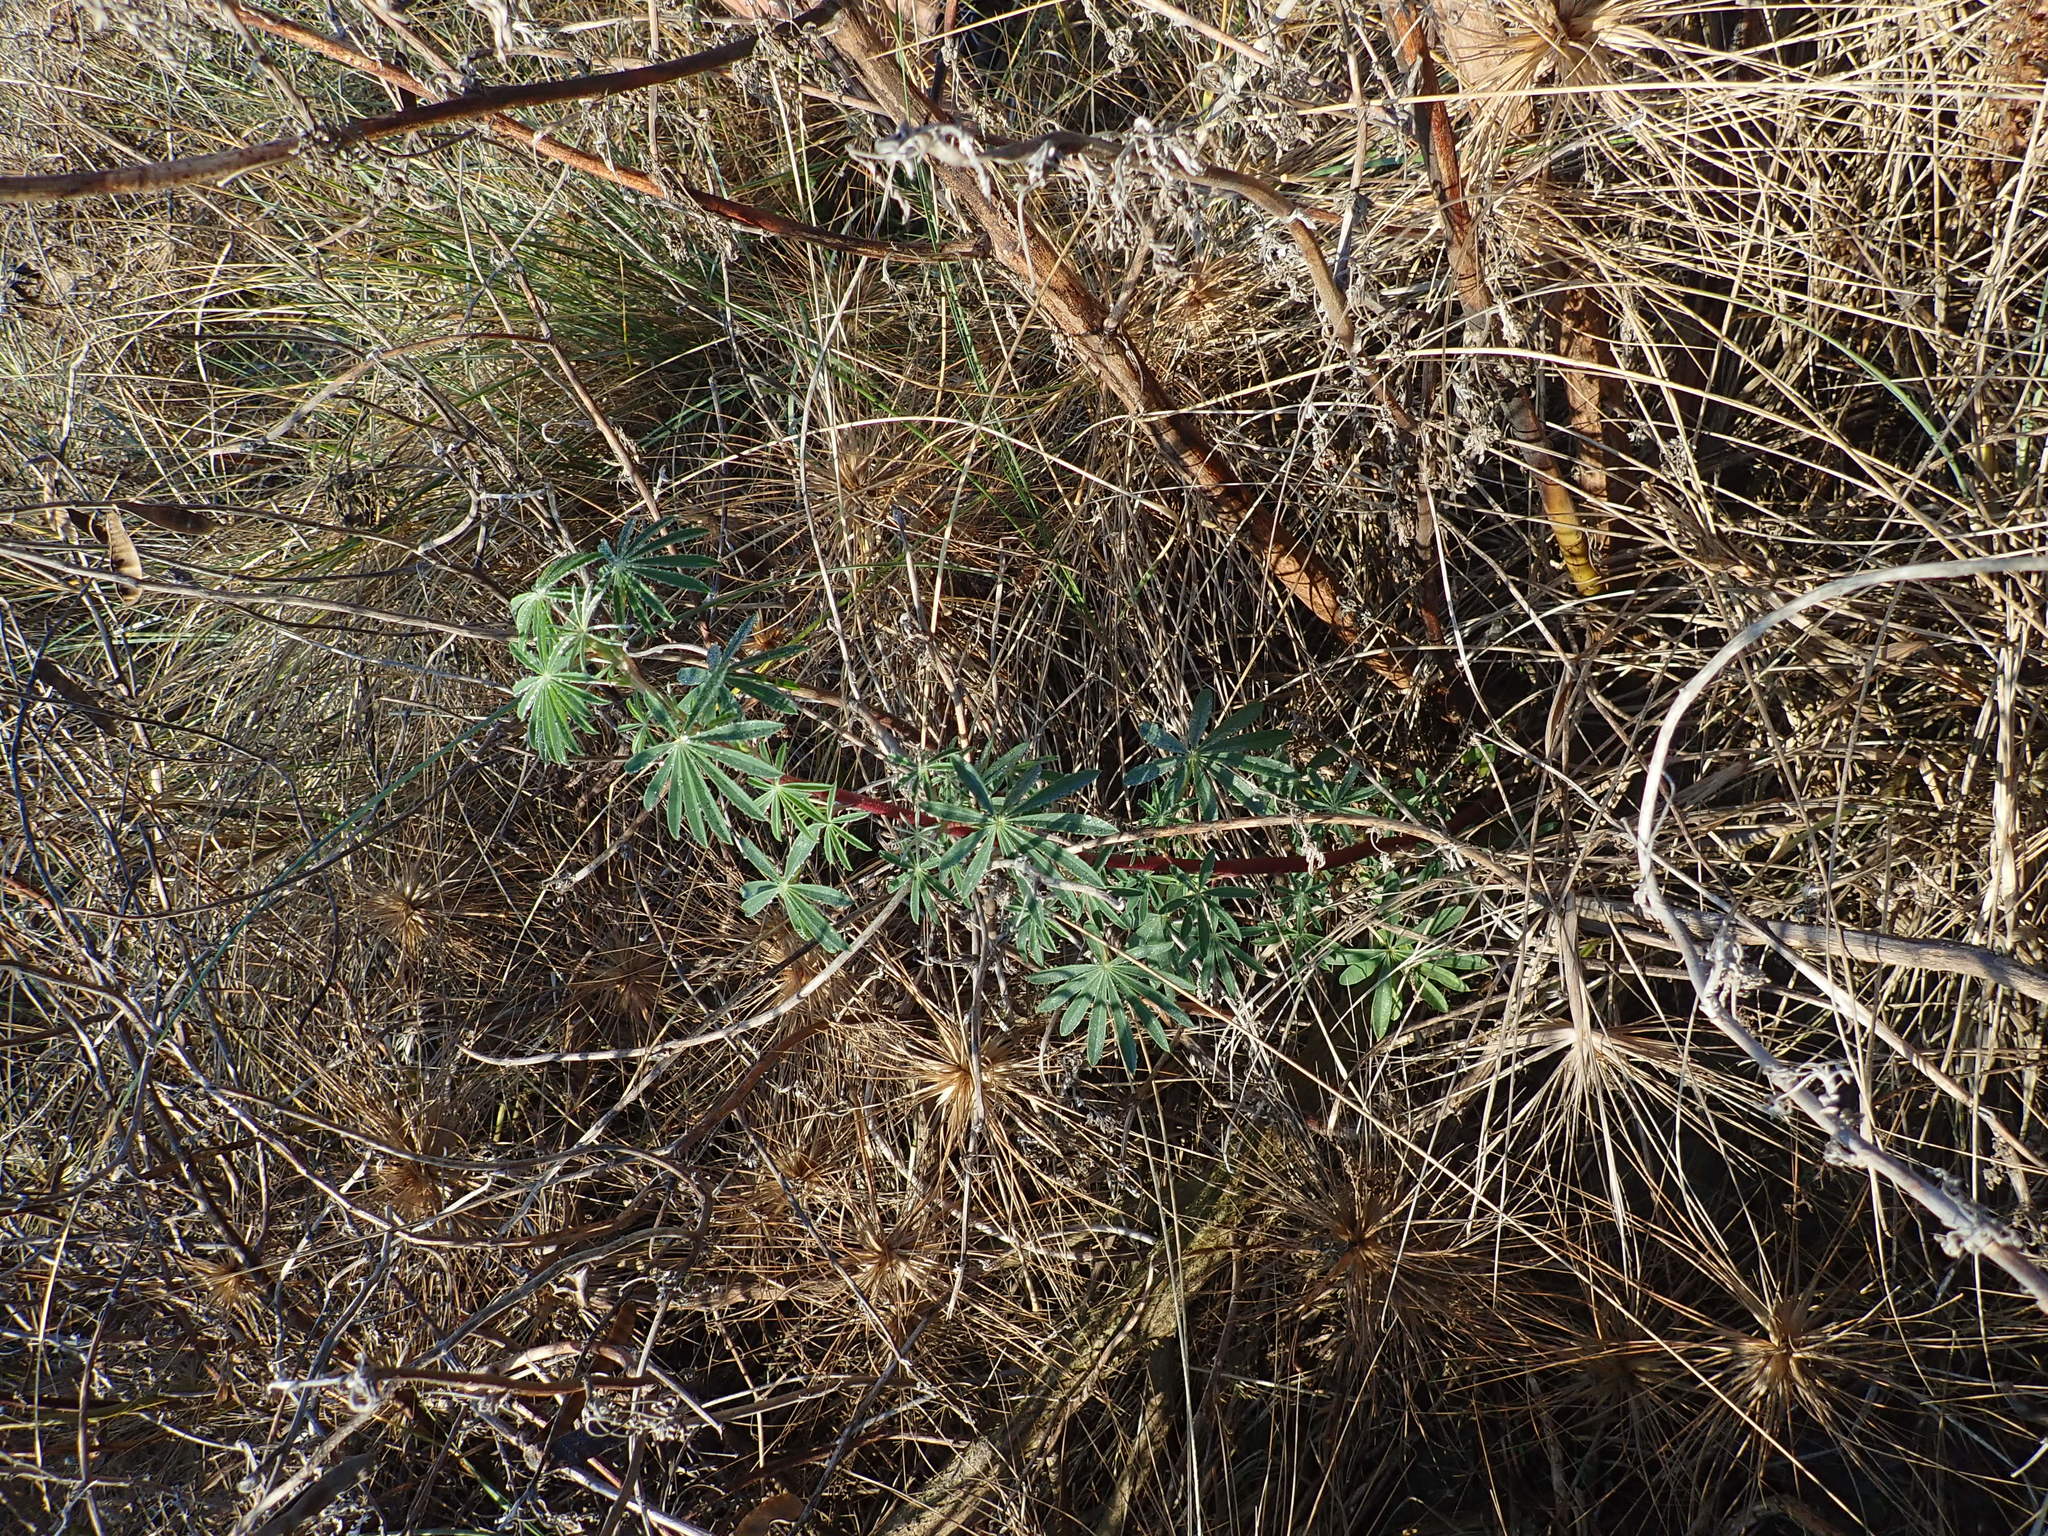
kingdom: Plantae
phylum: Tracheophyta
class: Magnoliopsida
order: Fabales
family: Fabaceae
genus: Lupinus
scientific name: Lupinus arboreus
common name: Yellow bush lupine
